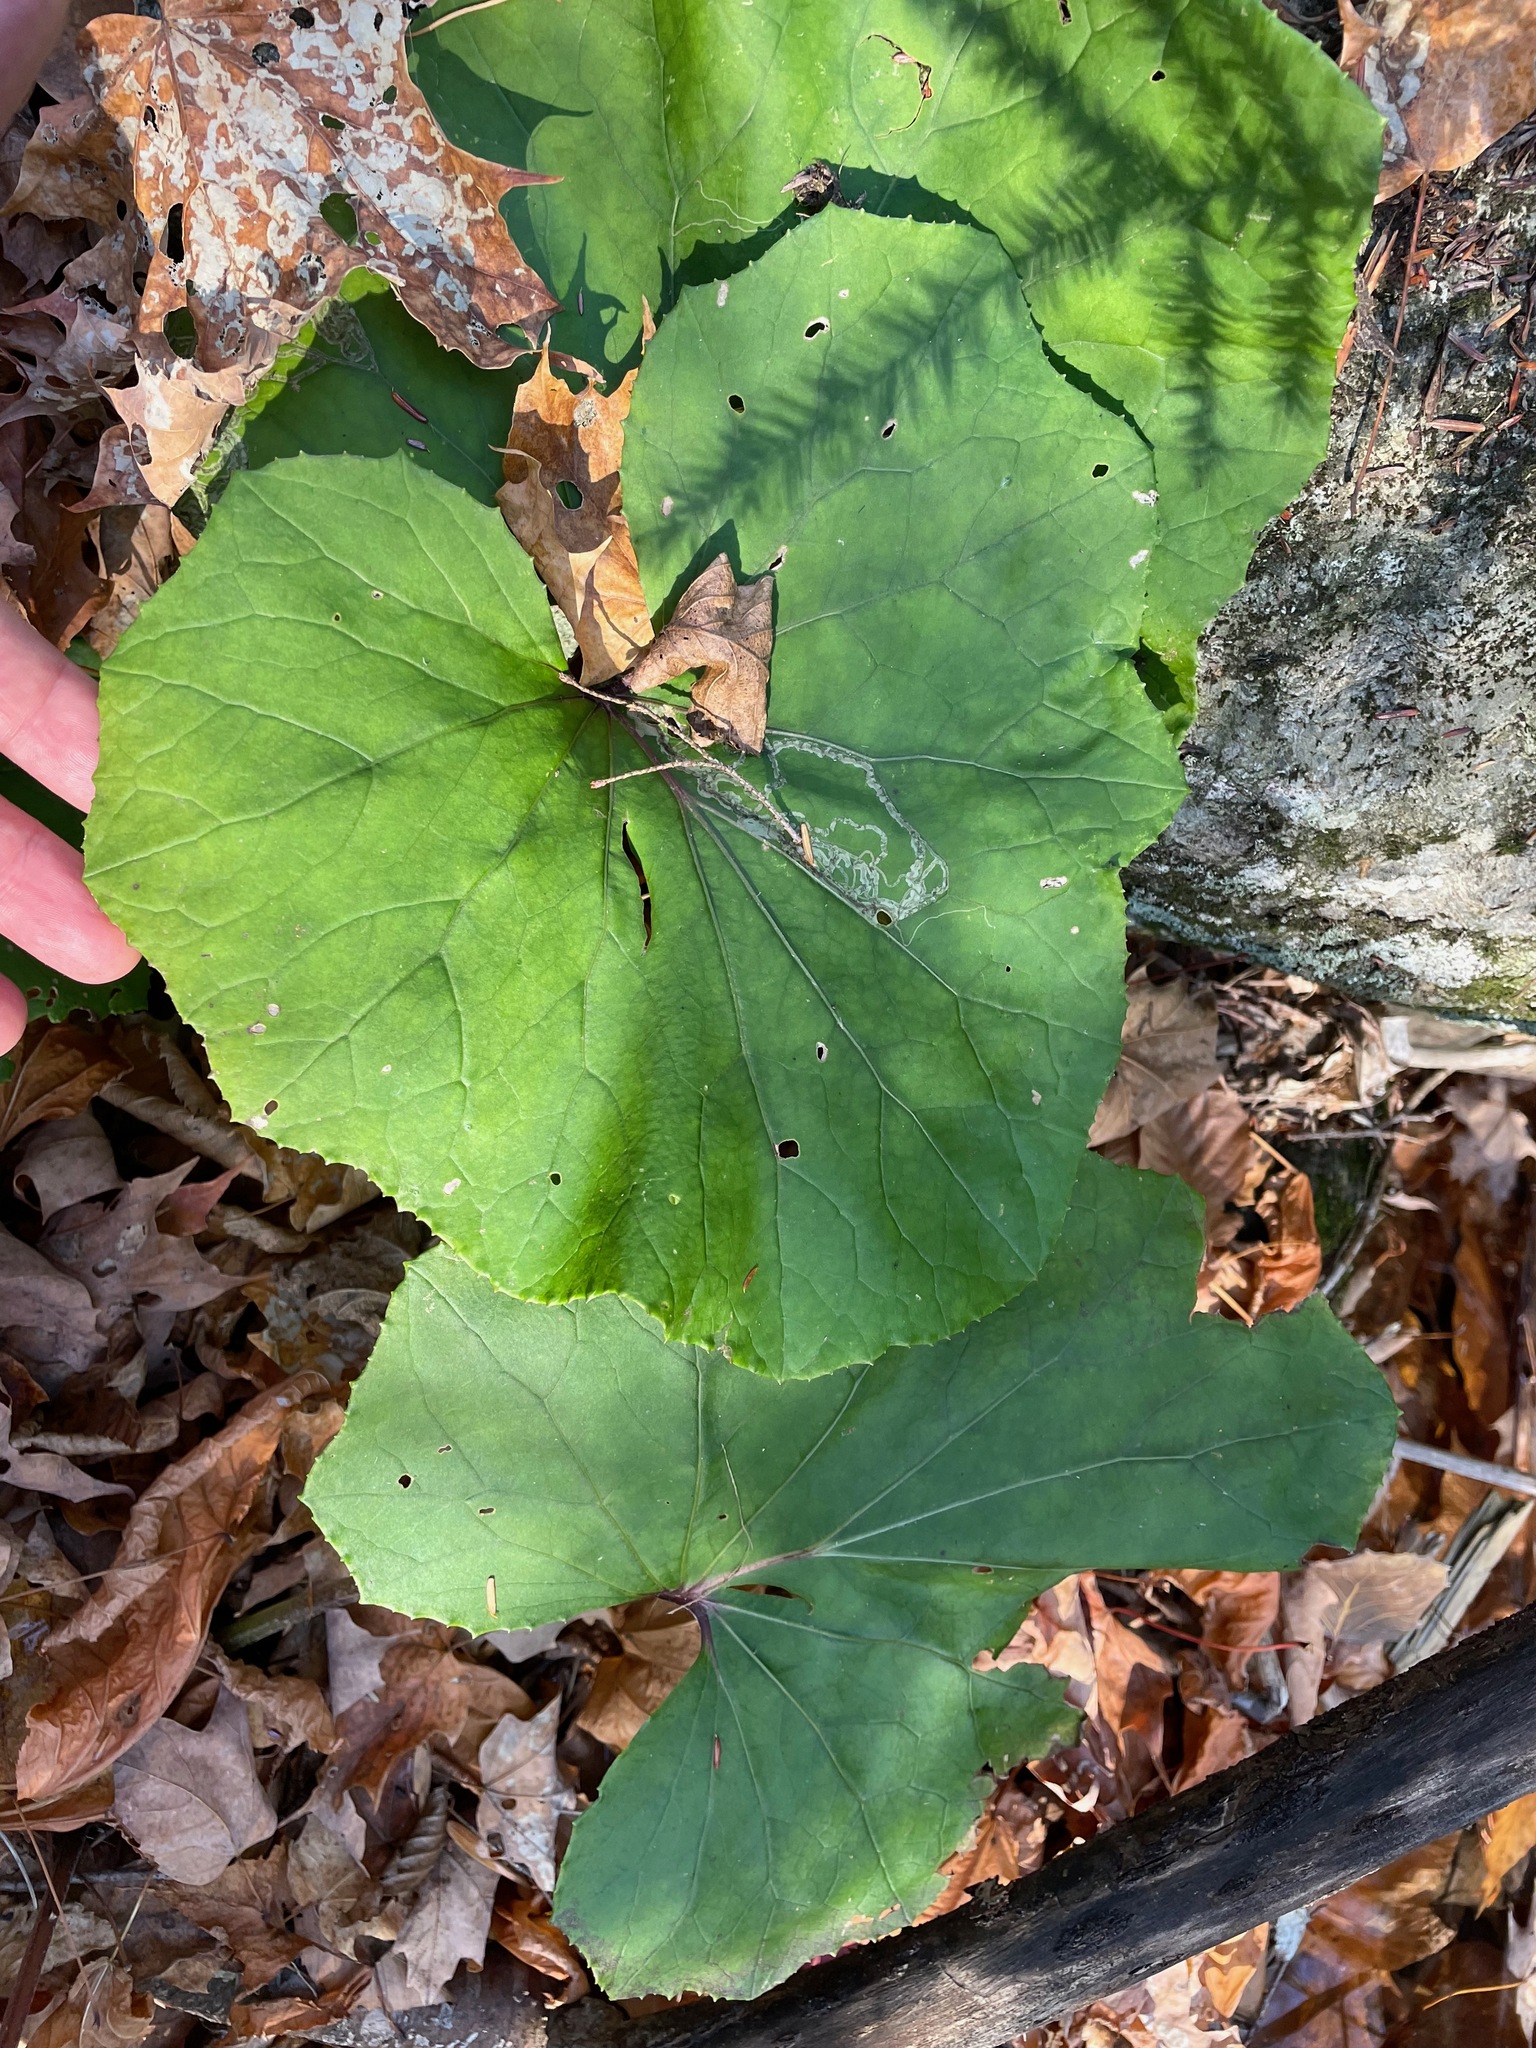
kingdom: Plantae
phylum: Tracheophyta
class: Magnoliopsida
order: Asterales
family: Asteraceae
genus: Tussilago
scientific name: Tussilago farfara
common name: Coltsfoot
